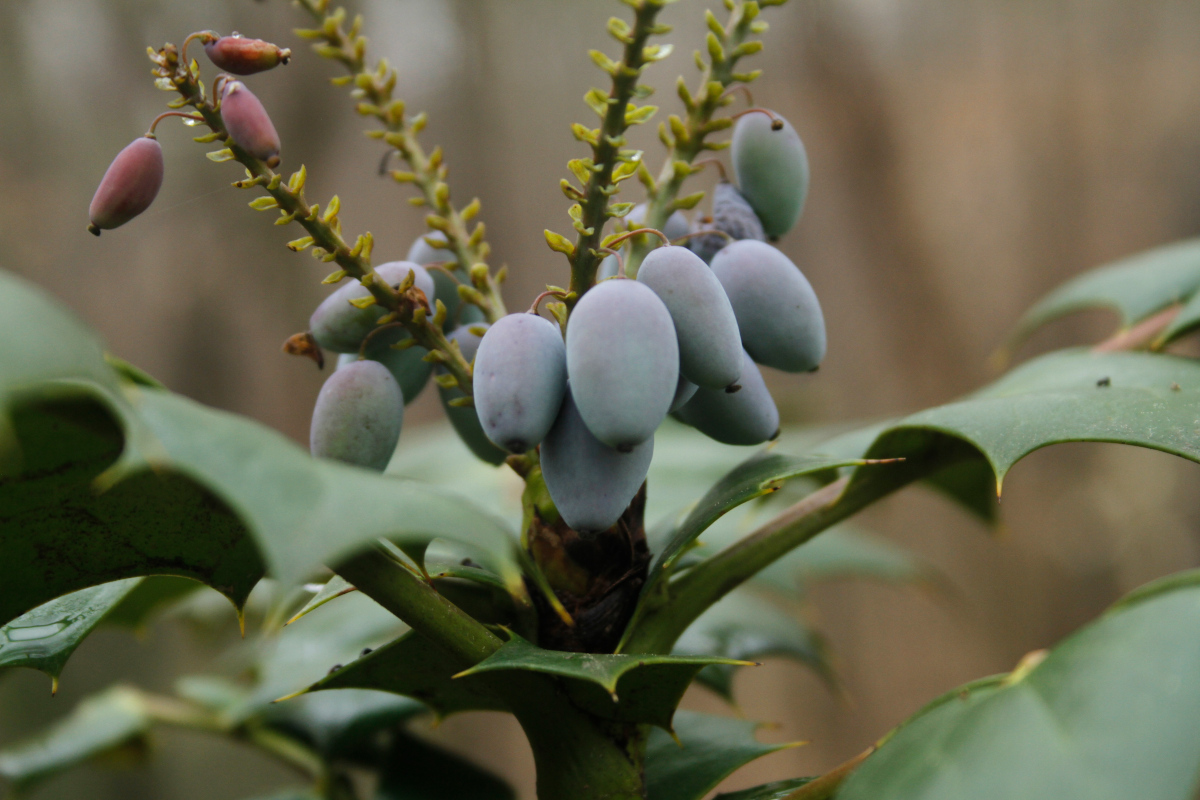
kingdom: Plantae
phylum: Tracheophyta
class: Magnoliopsida
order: Ranunculales
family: Berberidaceae
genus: Mahonia
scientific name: Mahonia bealei
